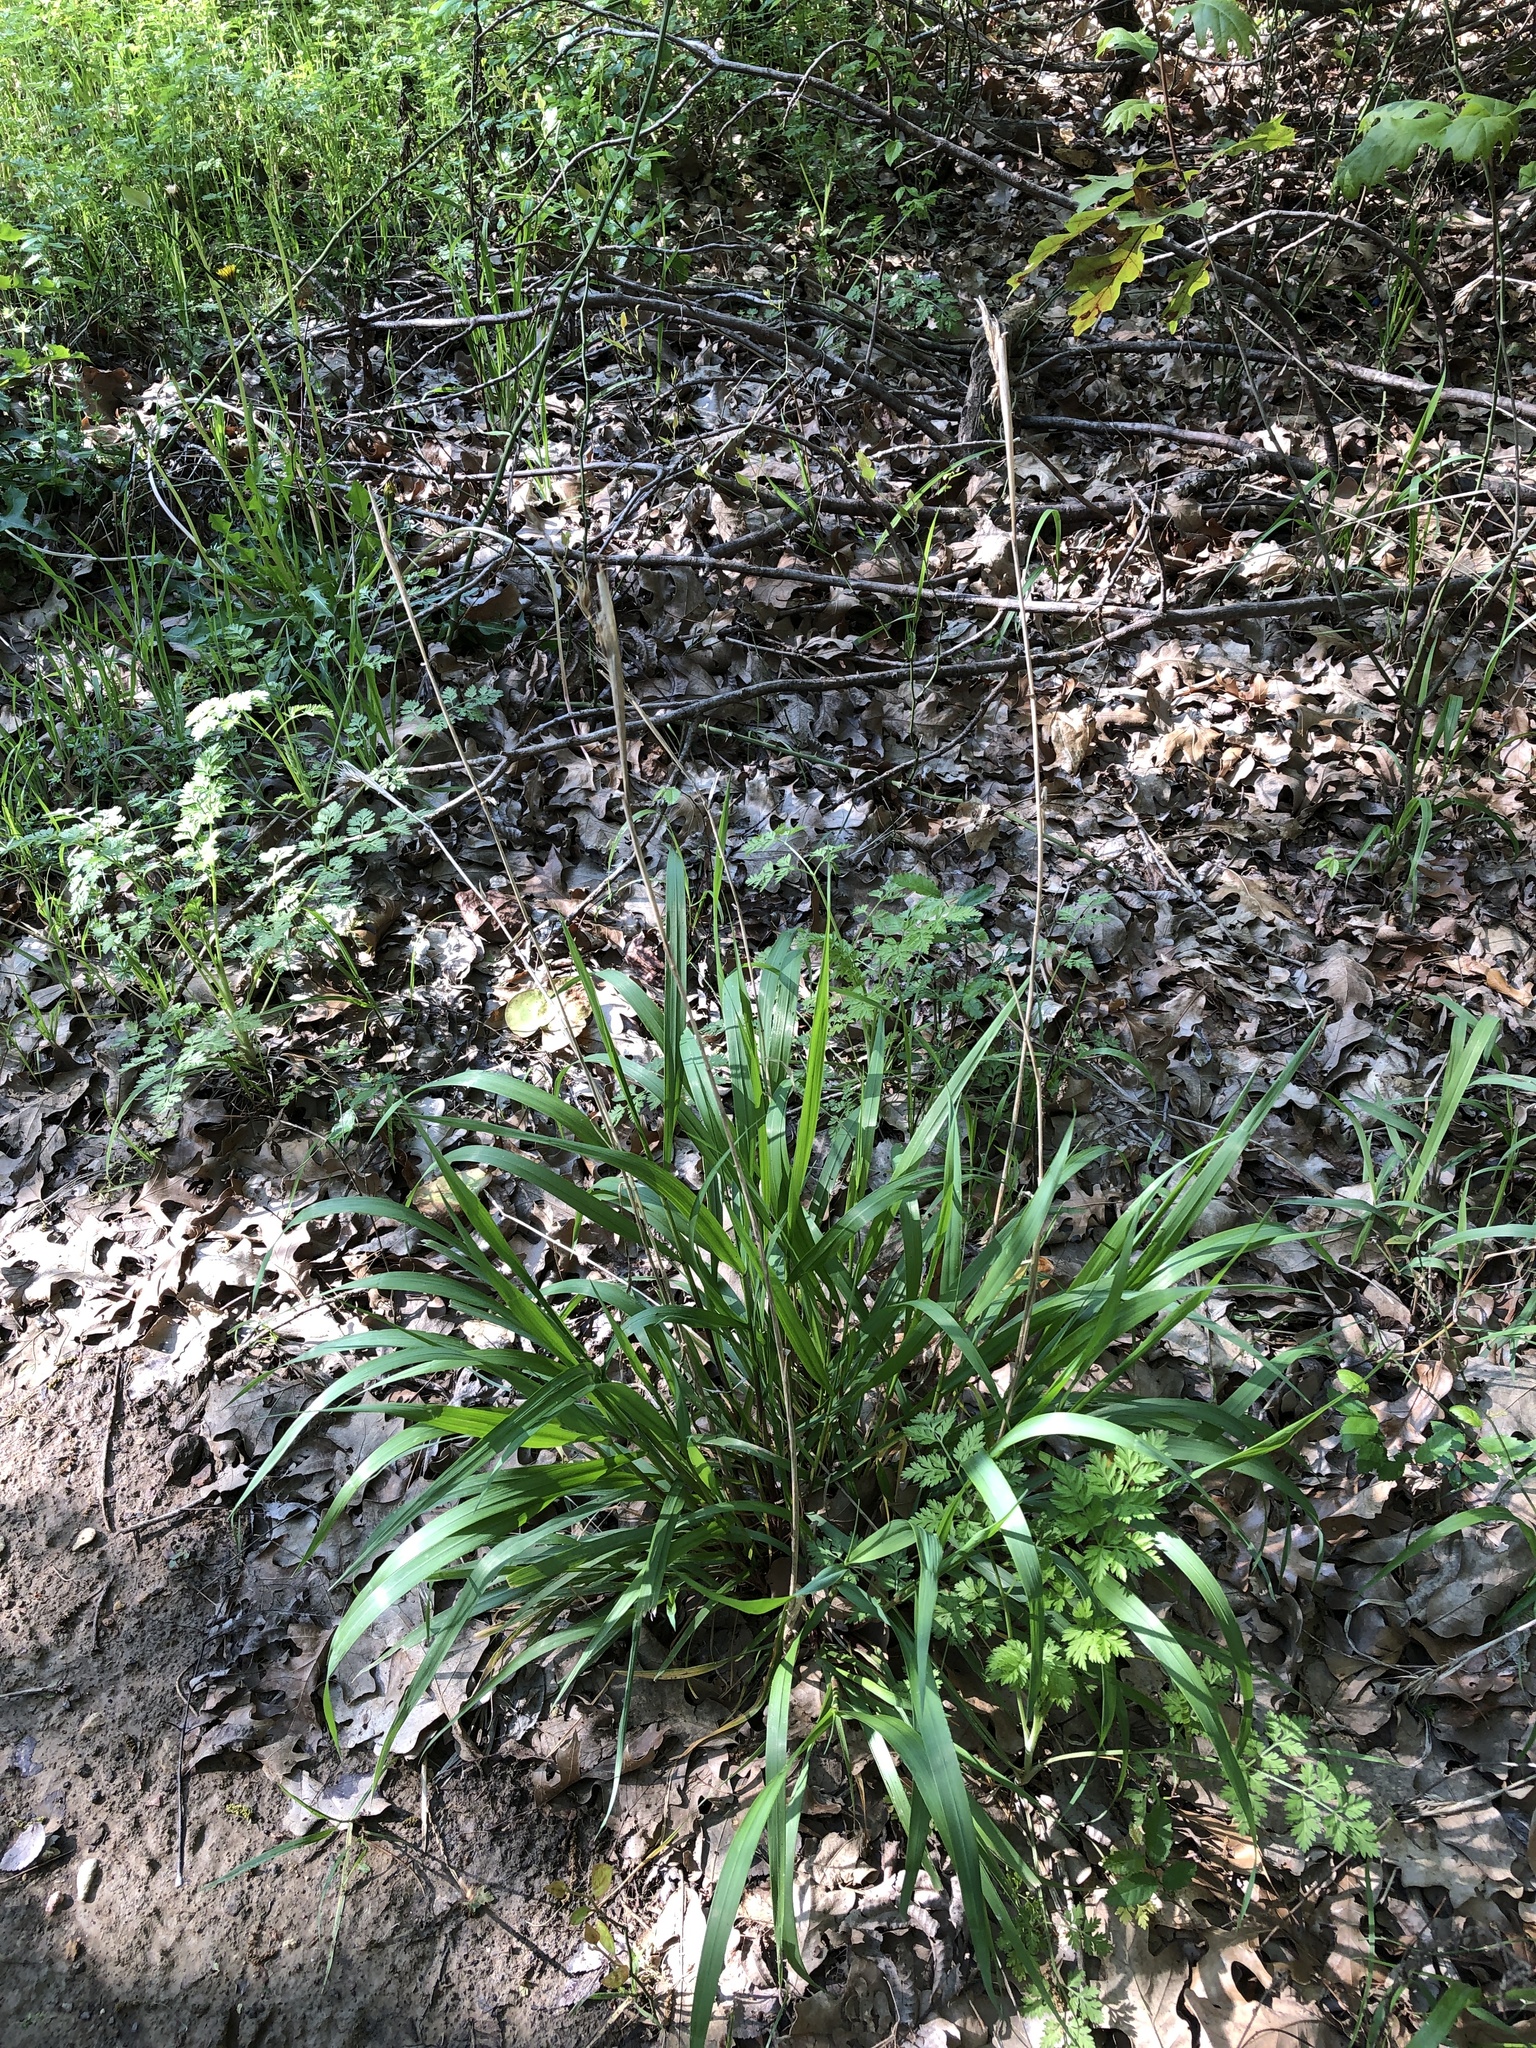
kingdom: Plantae
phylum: Tracheophyta
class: Liliopsida
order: Poales
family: Poaceae
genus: Elymus
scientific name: Elymus virginicus
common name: Common eastern wildrye
